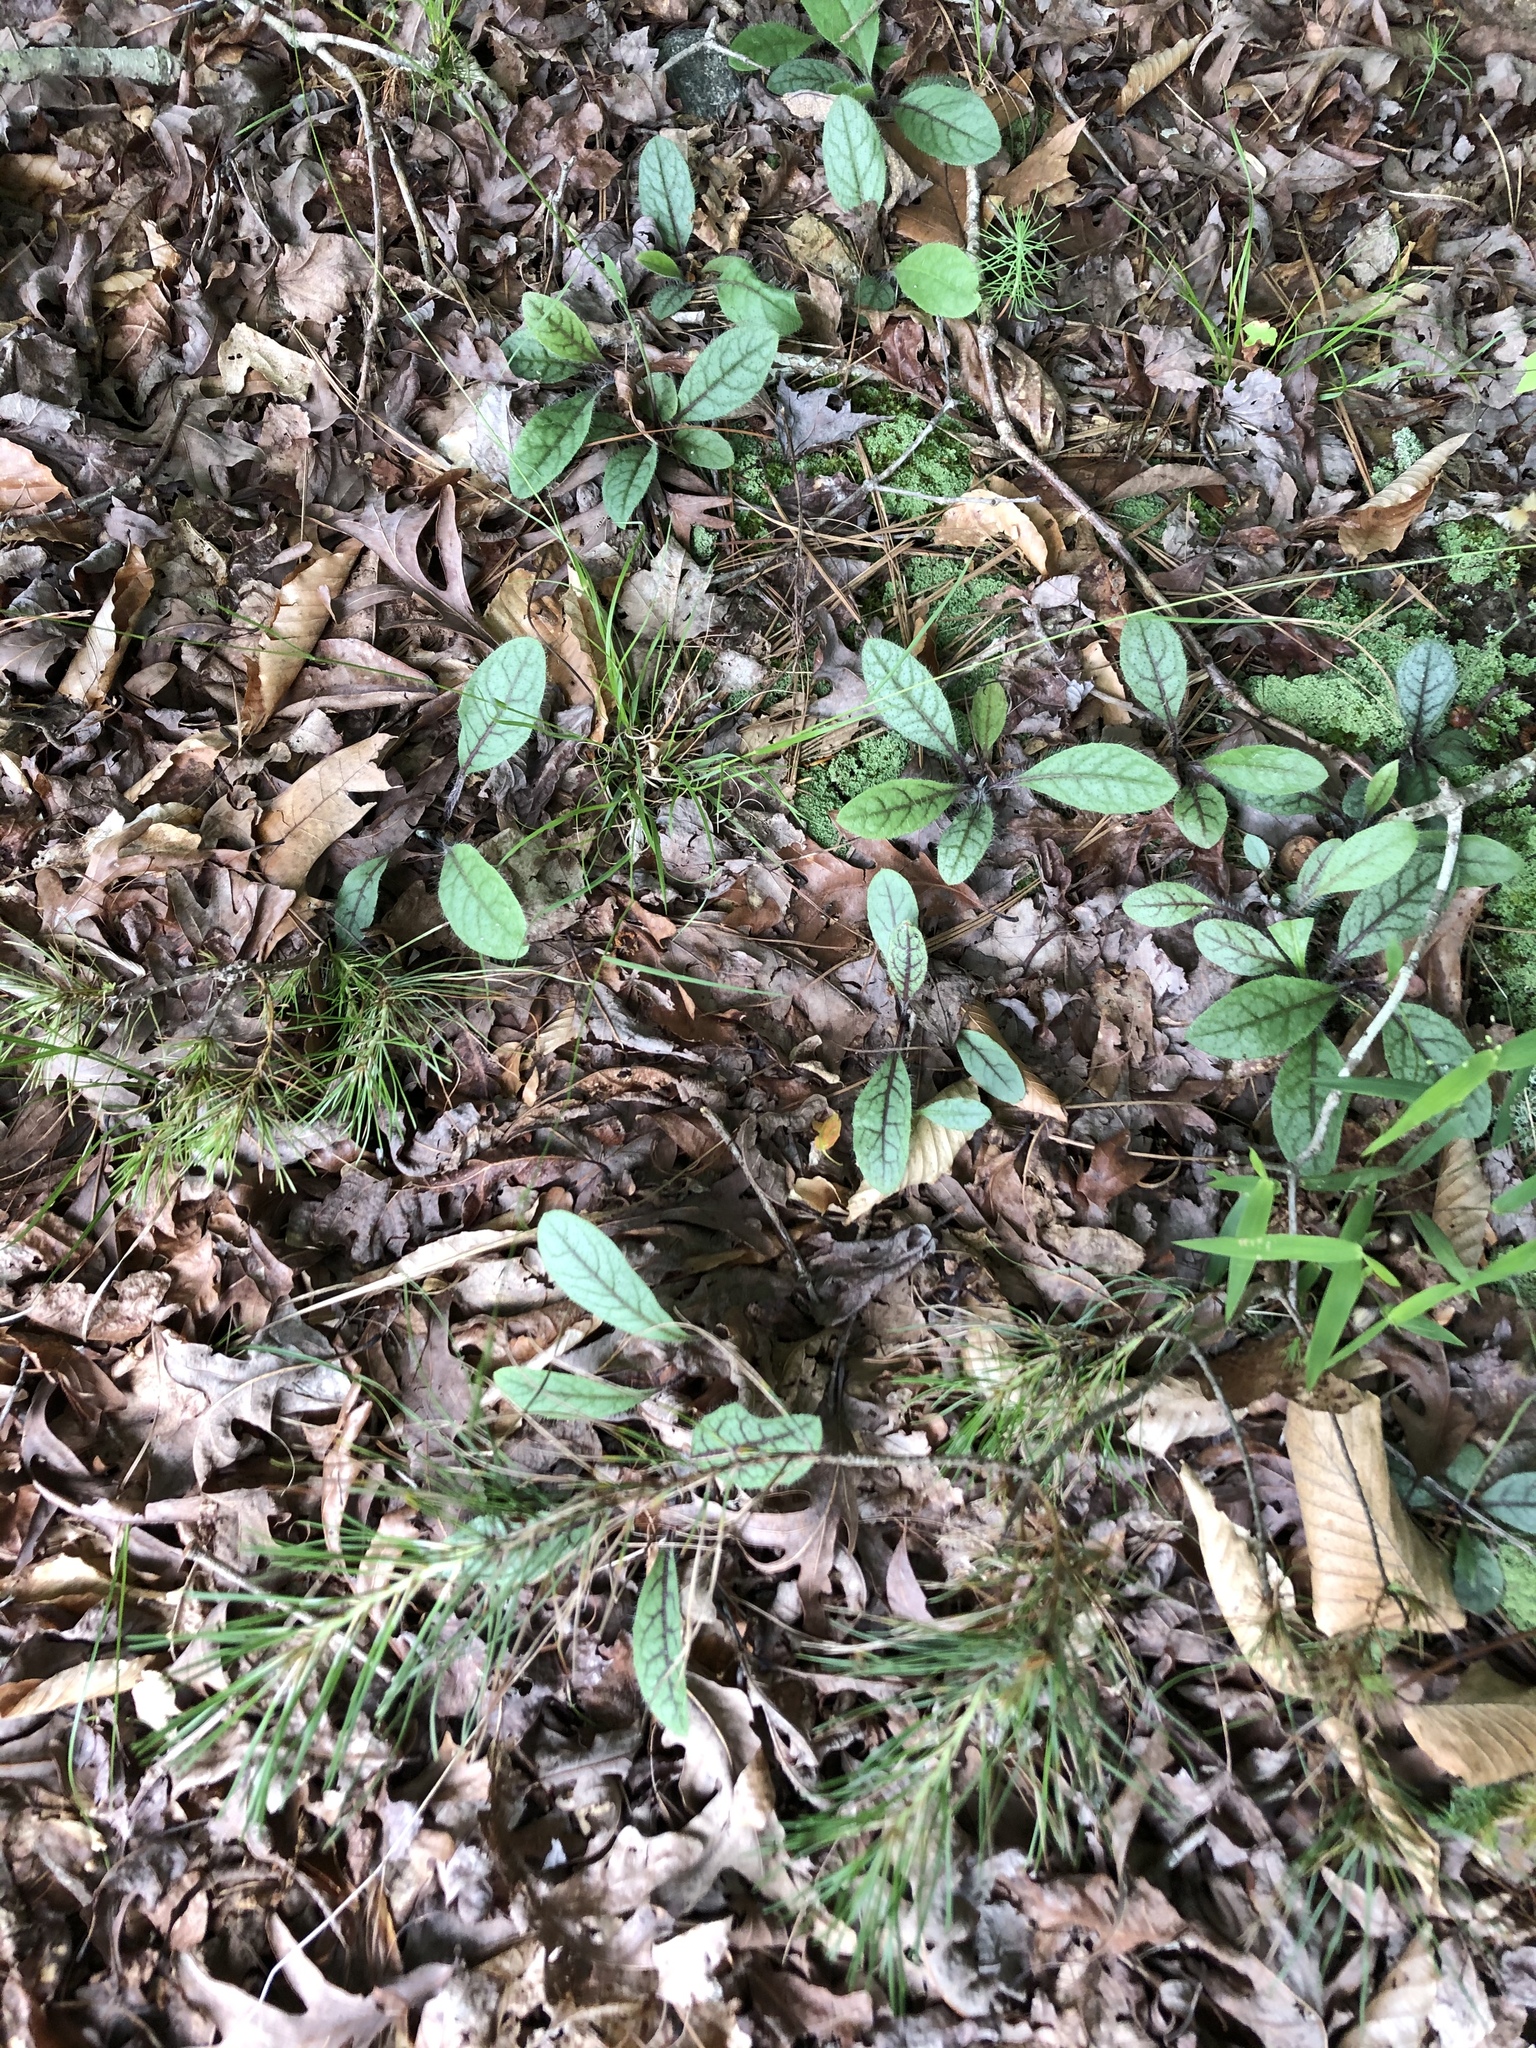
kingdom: Plantae
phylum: Tracheophyta
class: Magnoliopsida
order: Asterales
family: Asteraceae
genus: Hieracium
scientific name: Hieracium venosum
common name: Rattlesnake hawkweed
